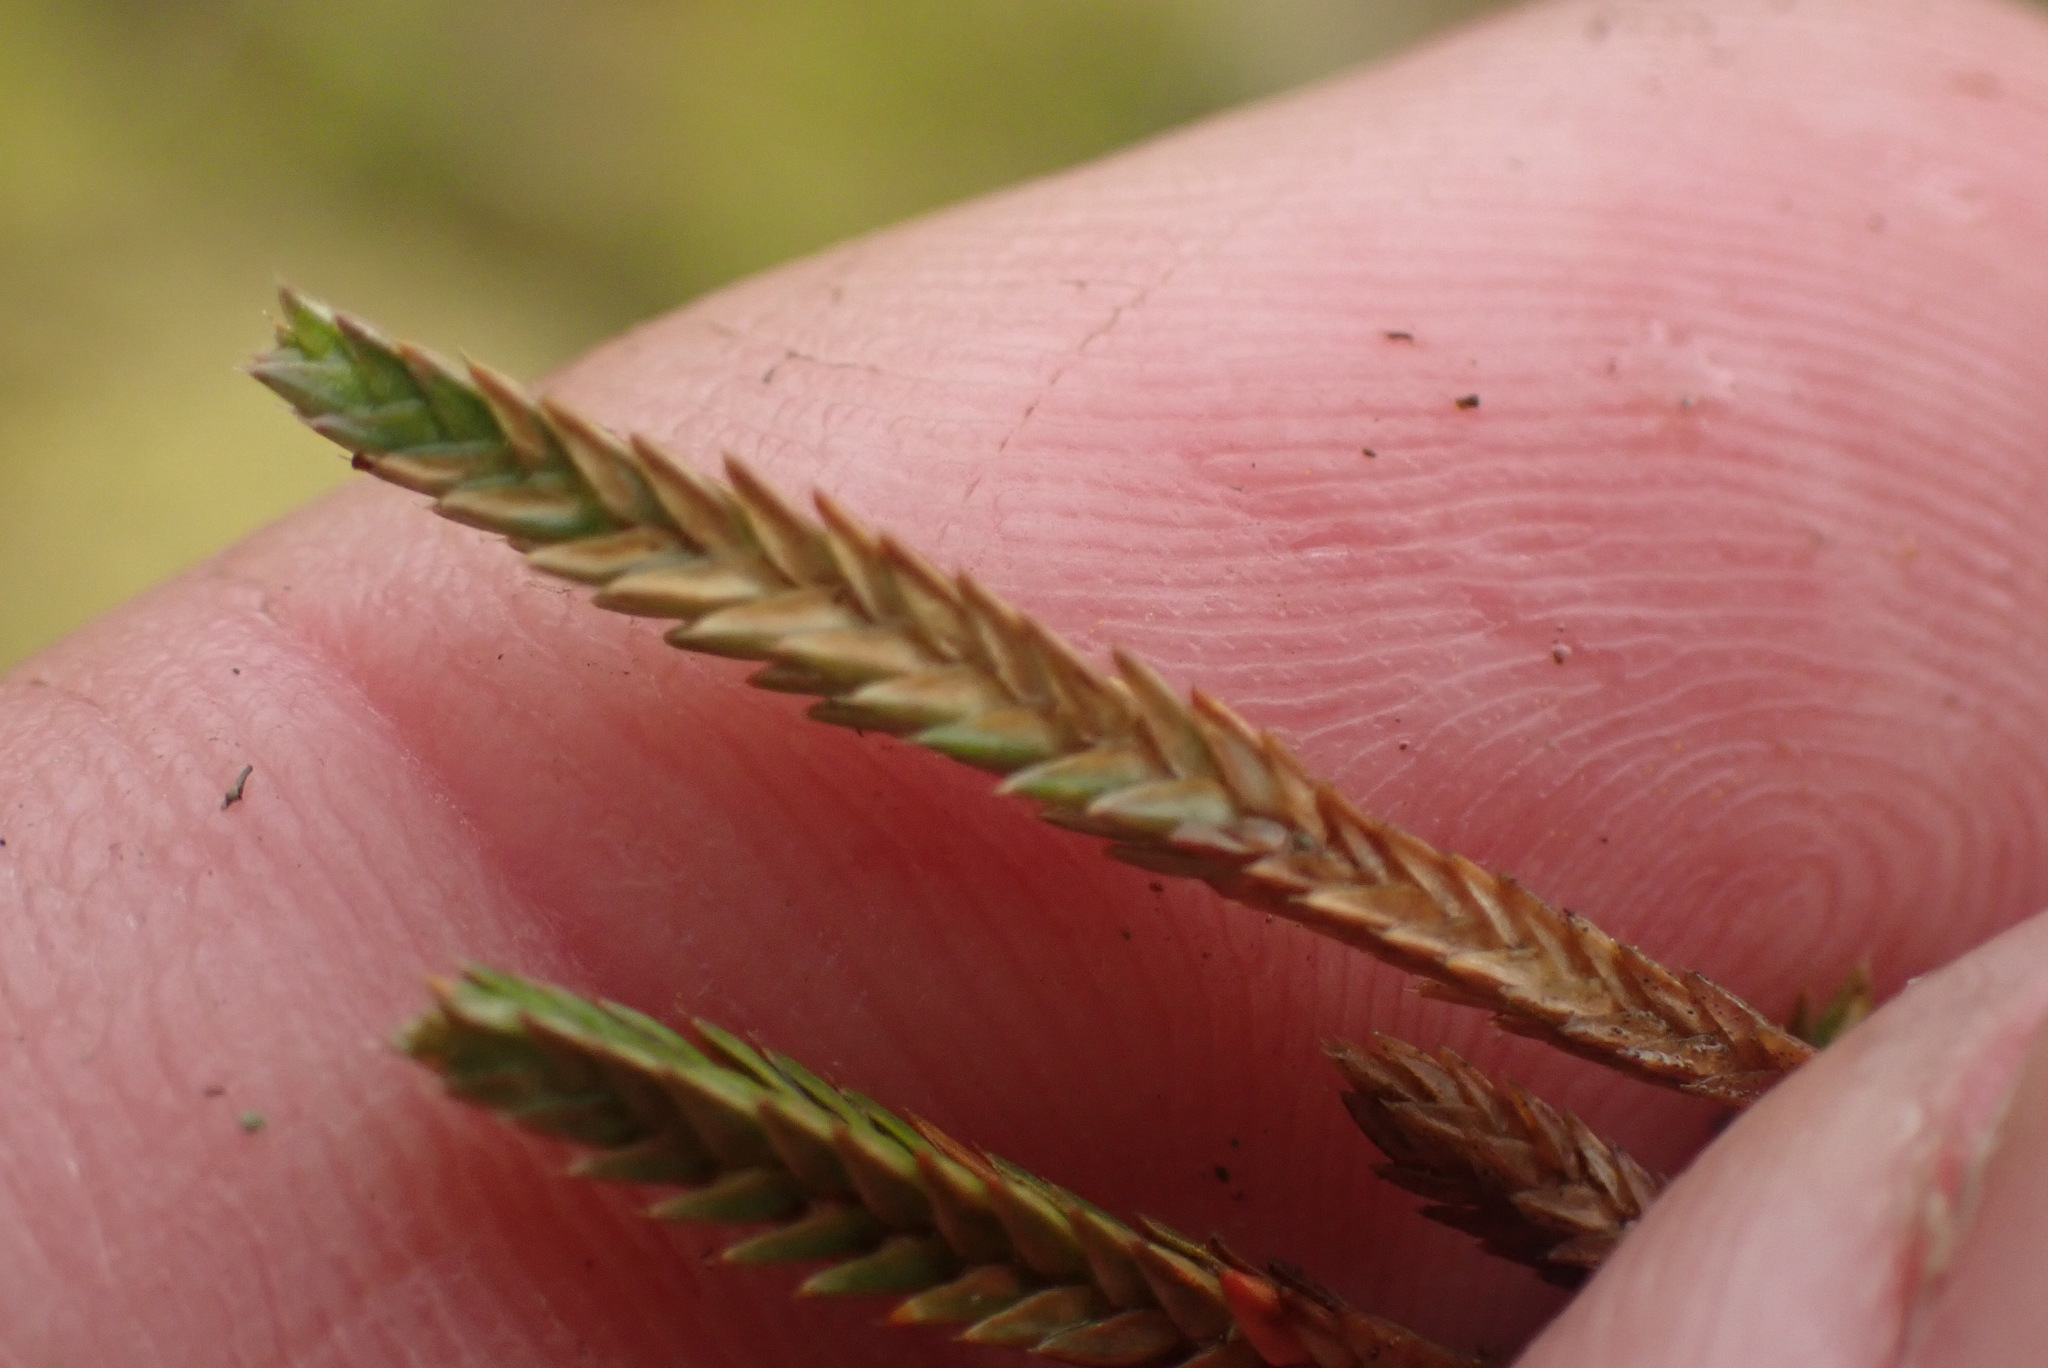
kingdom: Plantae
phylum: Tracheophyta
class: Lycopodiopsida
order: Selaginellales
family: Selaginellaceae
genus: Selaginella
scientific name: Selaginella wallacei
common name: Wallace's selaginella
